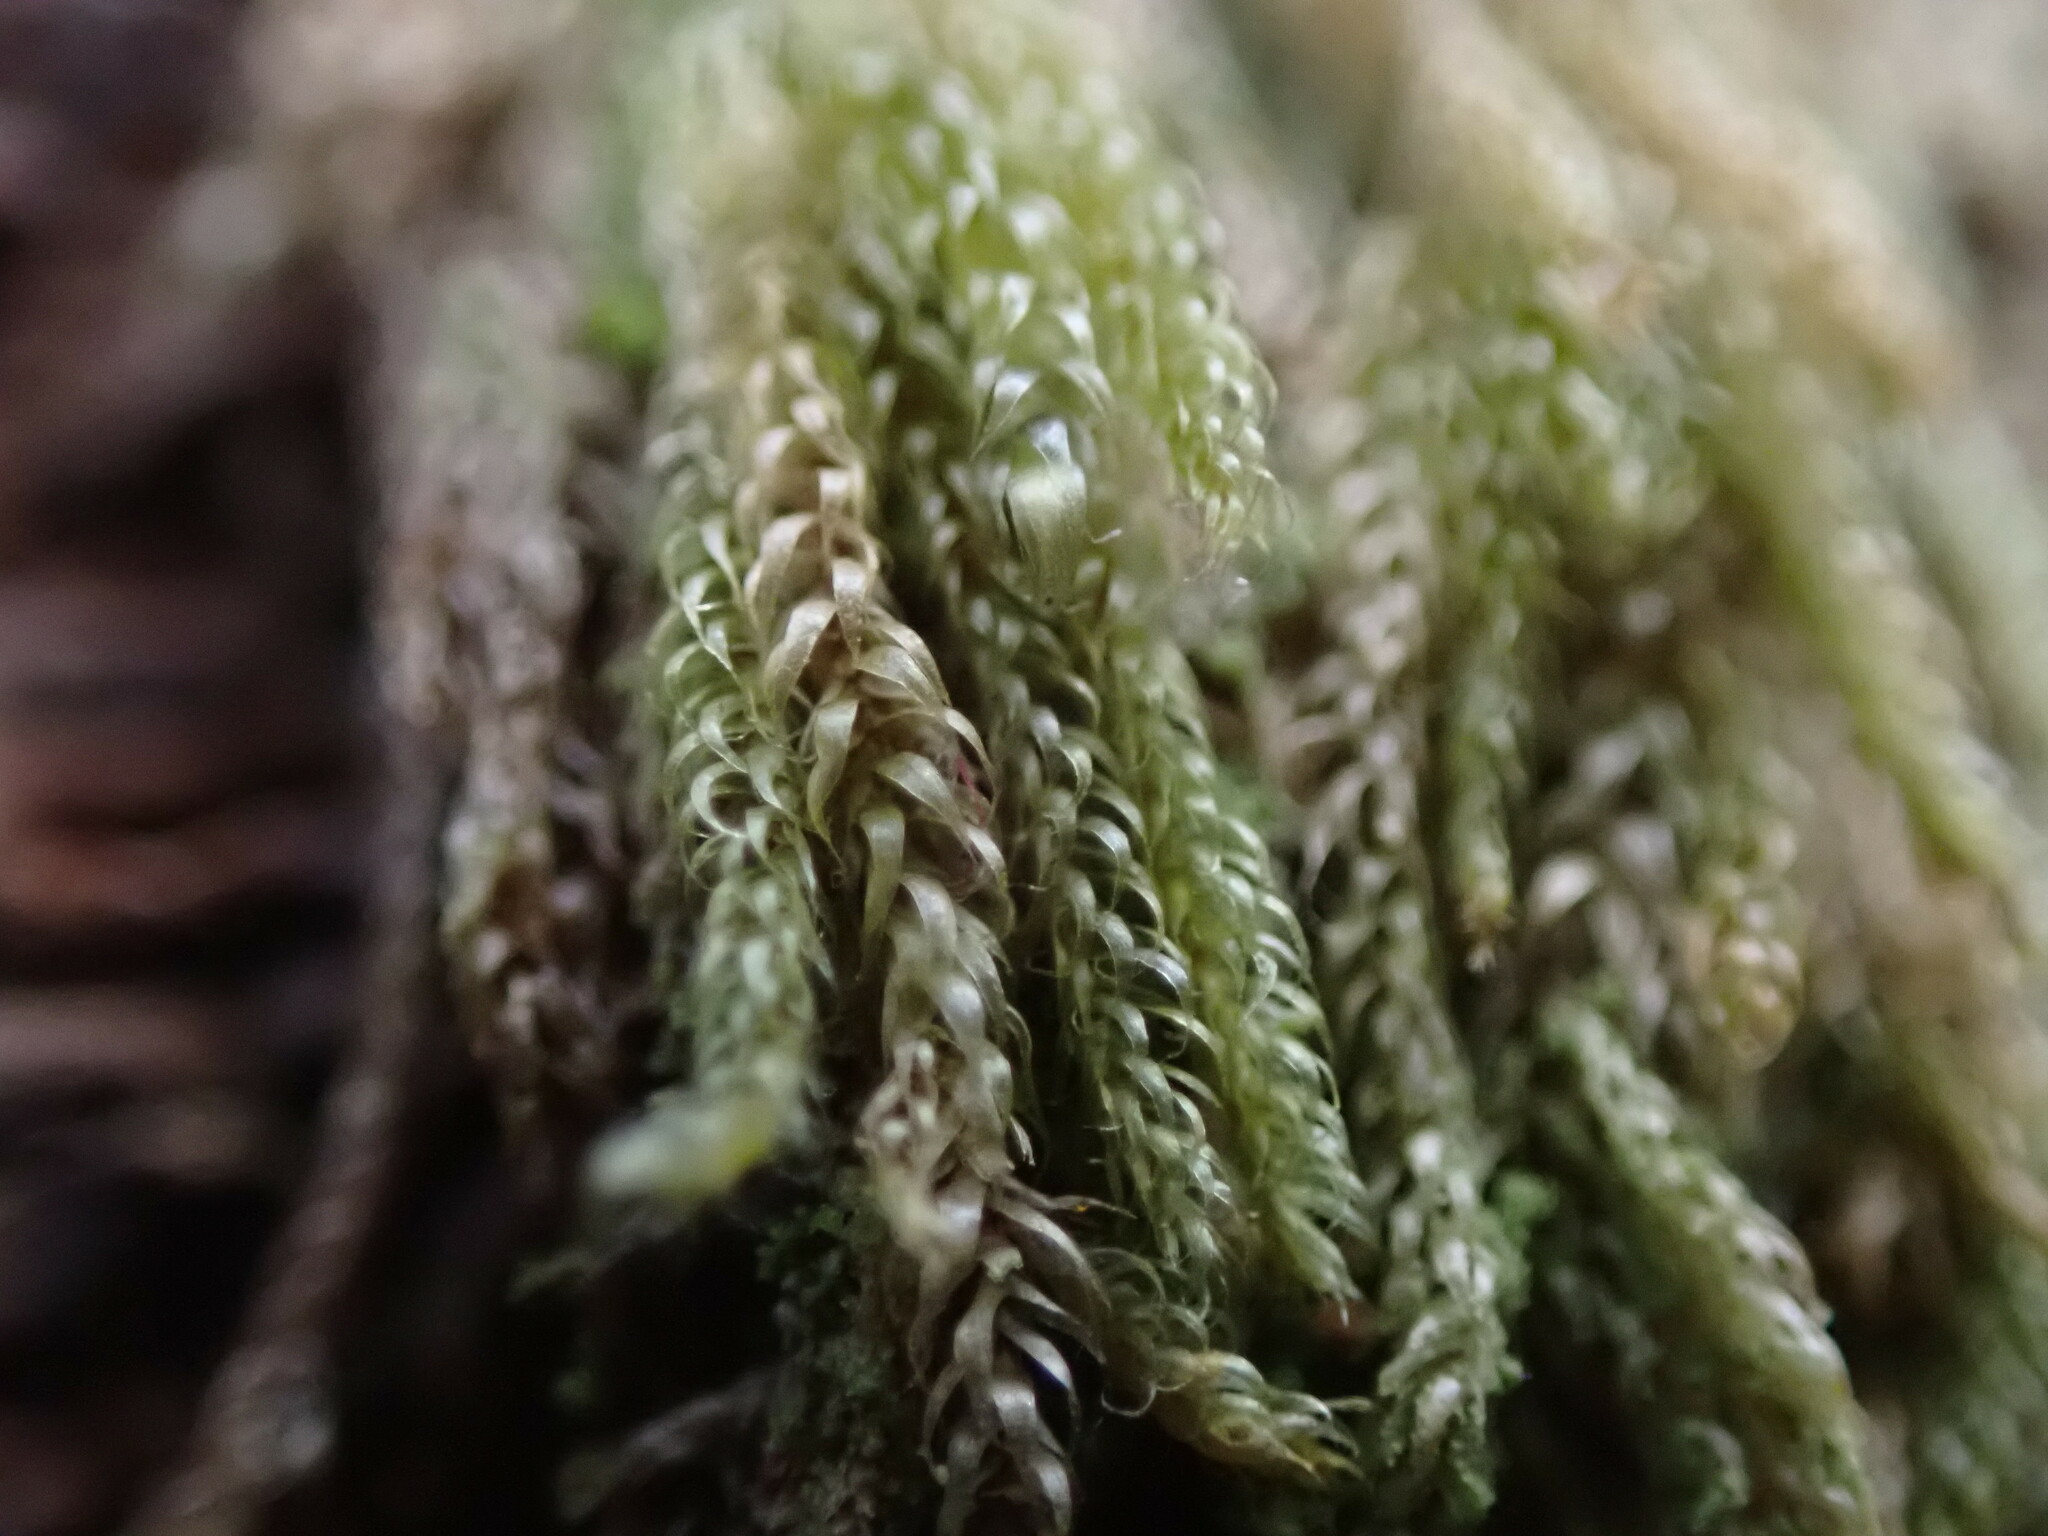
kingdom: Plantae
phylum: Bryophyta
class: Bryopsida
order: Hypnales
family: Pylaisiadelphaceae
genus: Trochophyllohypnum
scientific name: Trochophyllohypnum circinale
